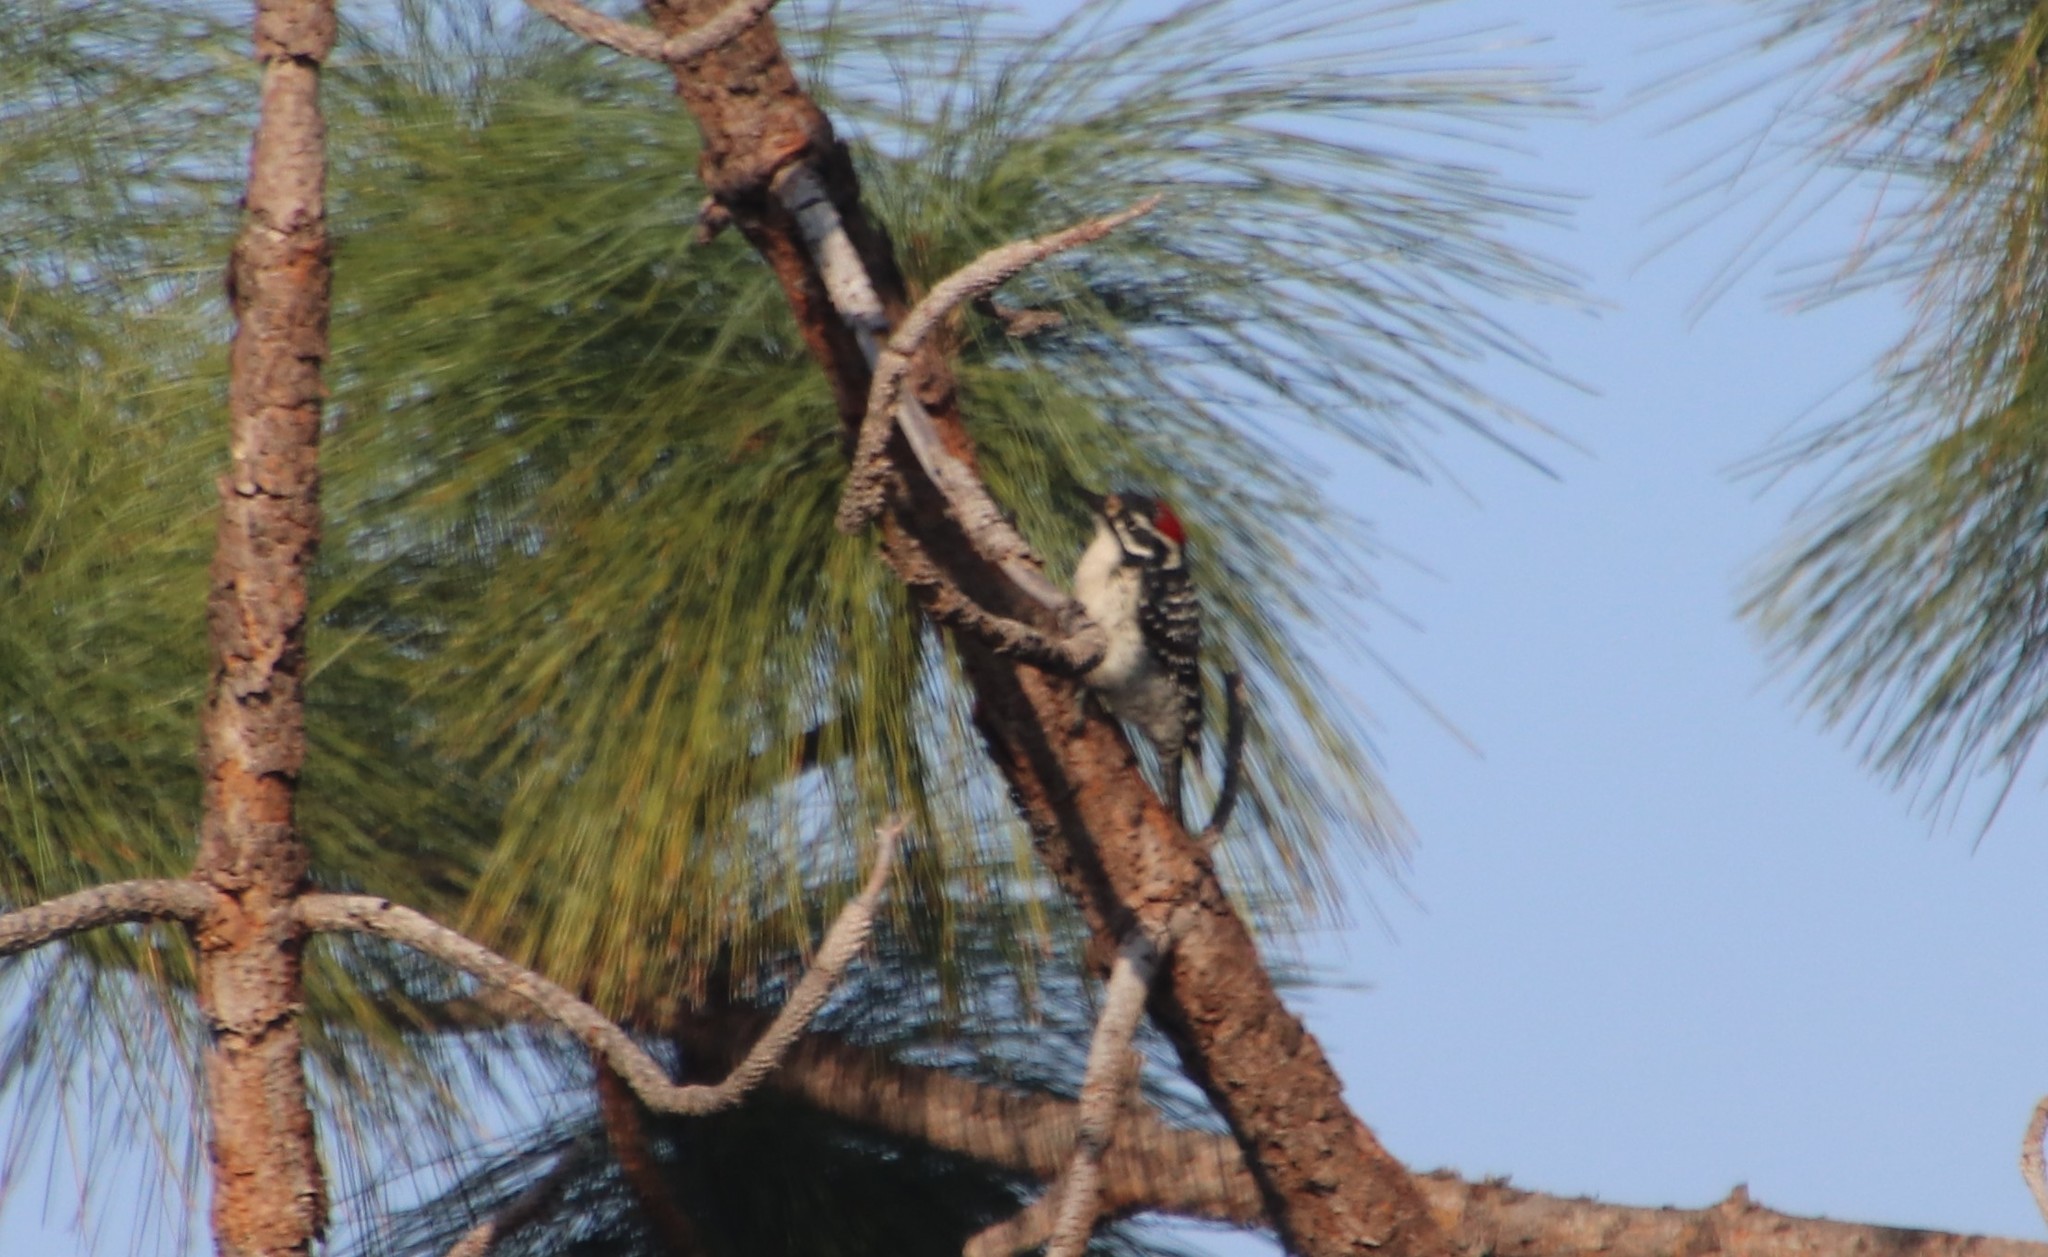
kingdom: Animalia
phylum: Chordata
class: Aves
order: Piciformes
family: Picidae
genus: Dryobates
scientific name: Dryobates nuttallii
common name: Nuttall's woodpecker
